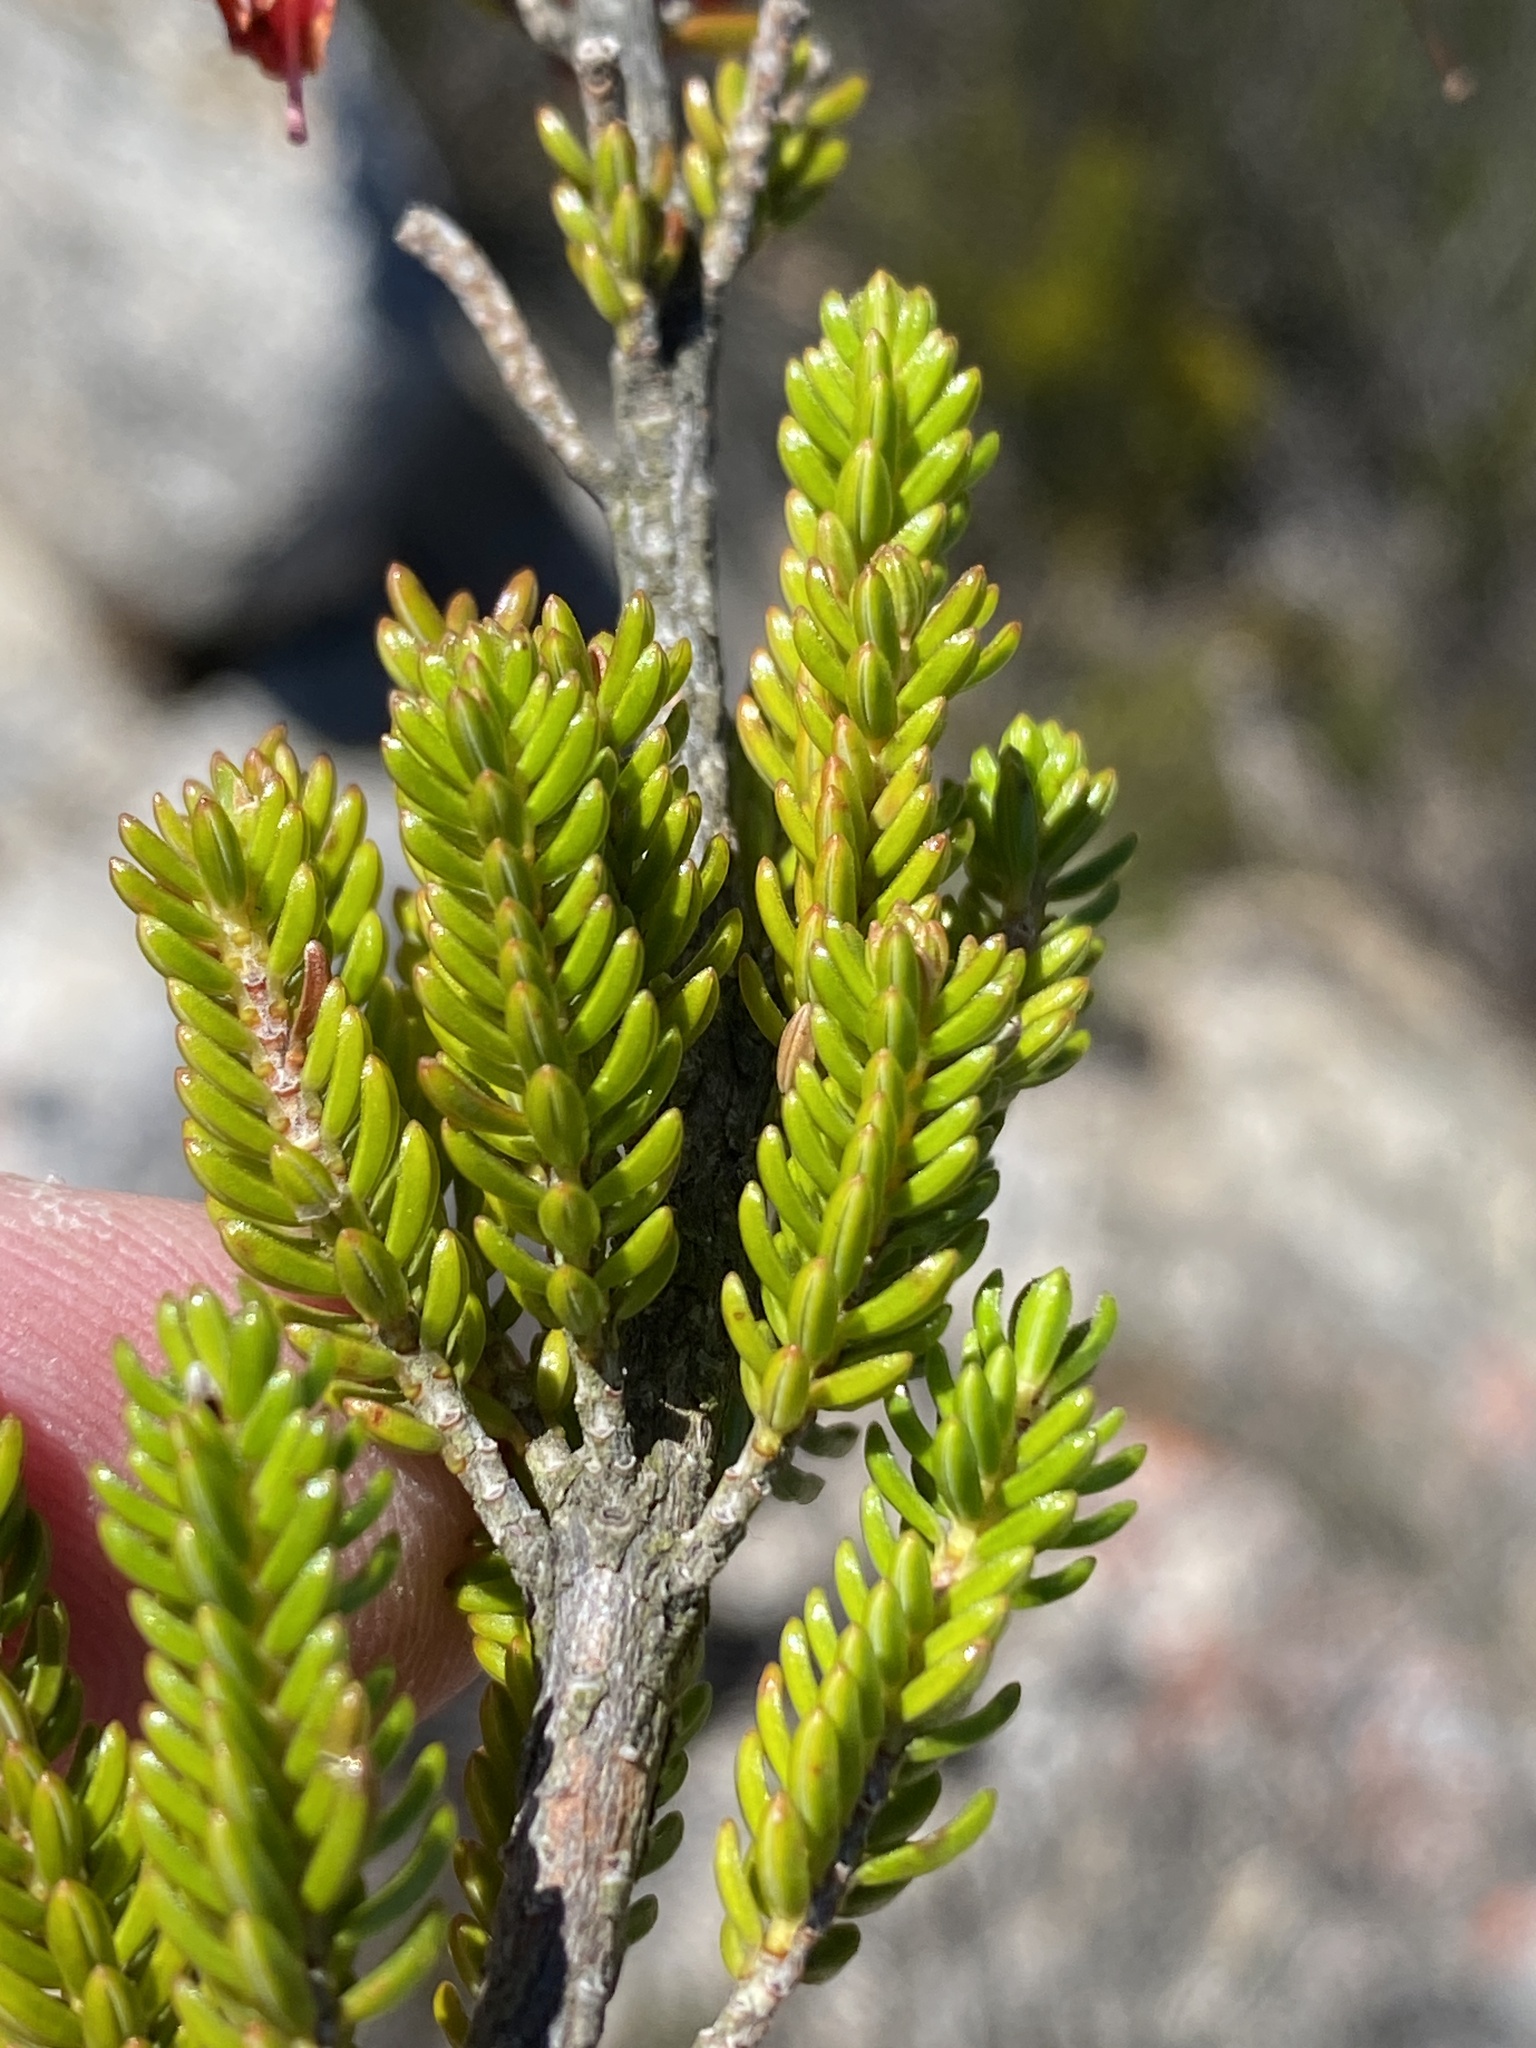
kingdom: Plantae
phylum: Tracheophyta
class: Magnoliopsida
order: Ericales
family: Ericaceae
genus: Erica
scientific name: Erica diaphana
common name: Heath
